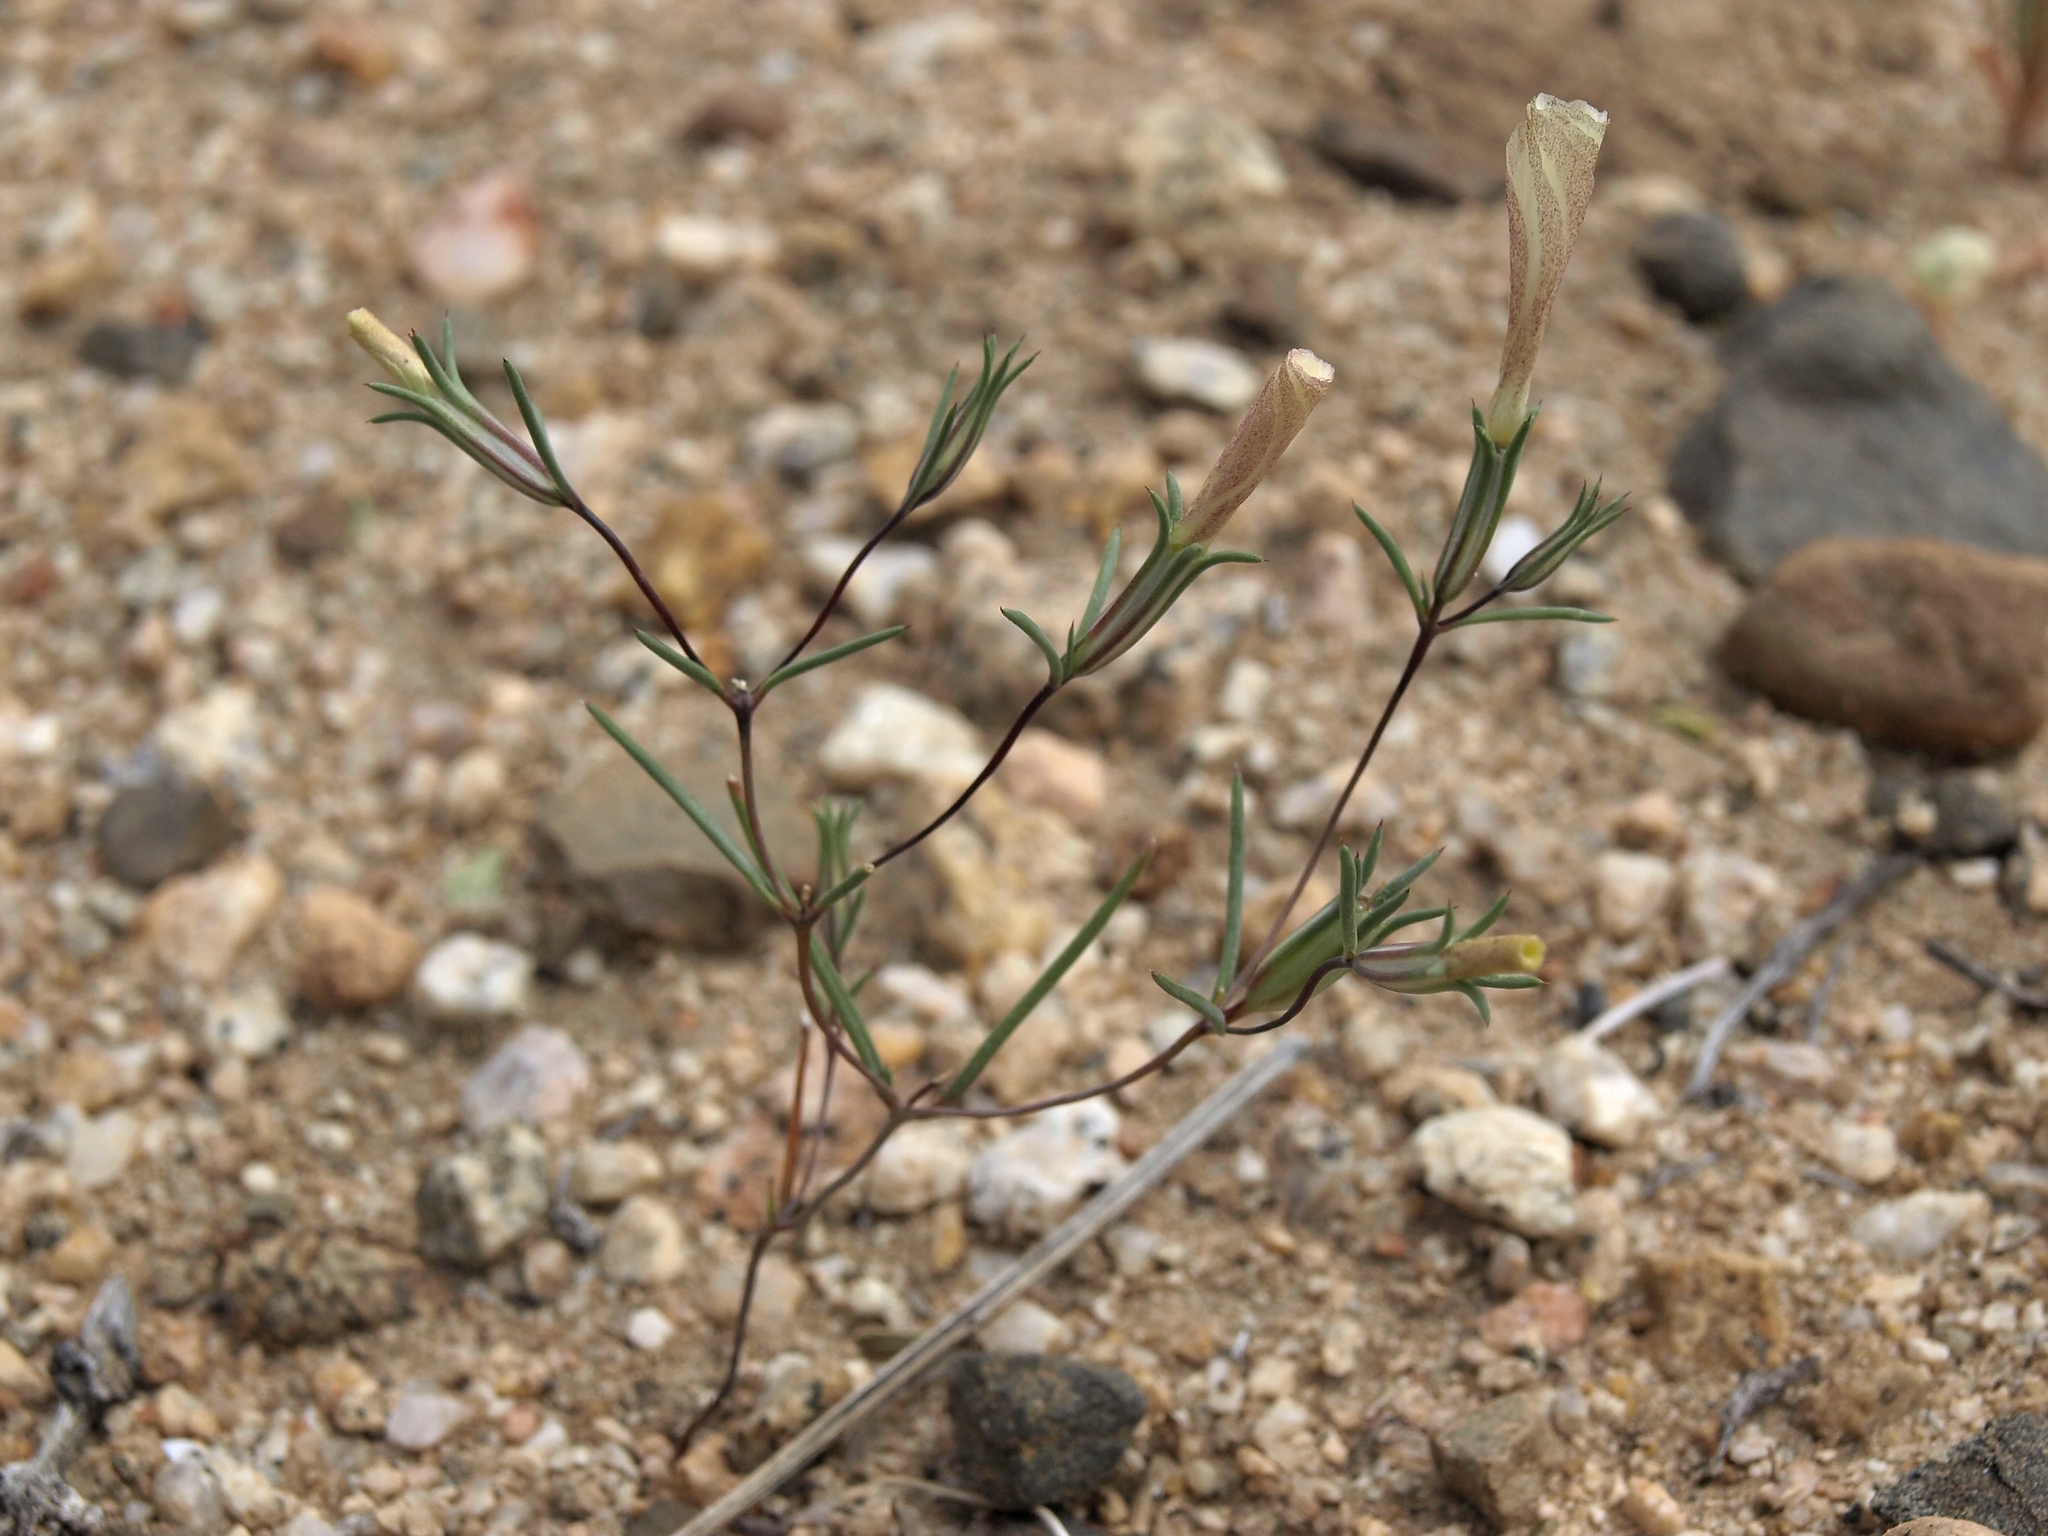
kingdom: Plantae
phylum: Tracheophyta
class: Magnoliopsida
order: Ericales
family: Polemoniaceae
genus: Linanthus
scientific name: Linanthus dichotomus
